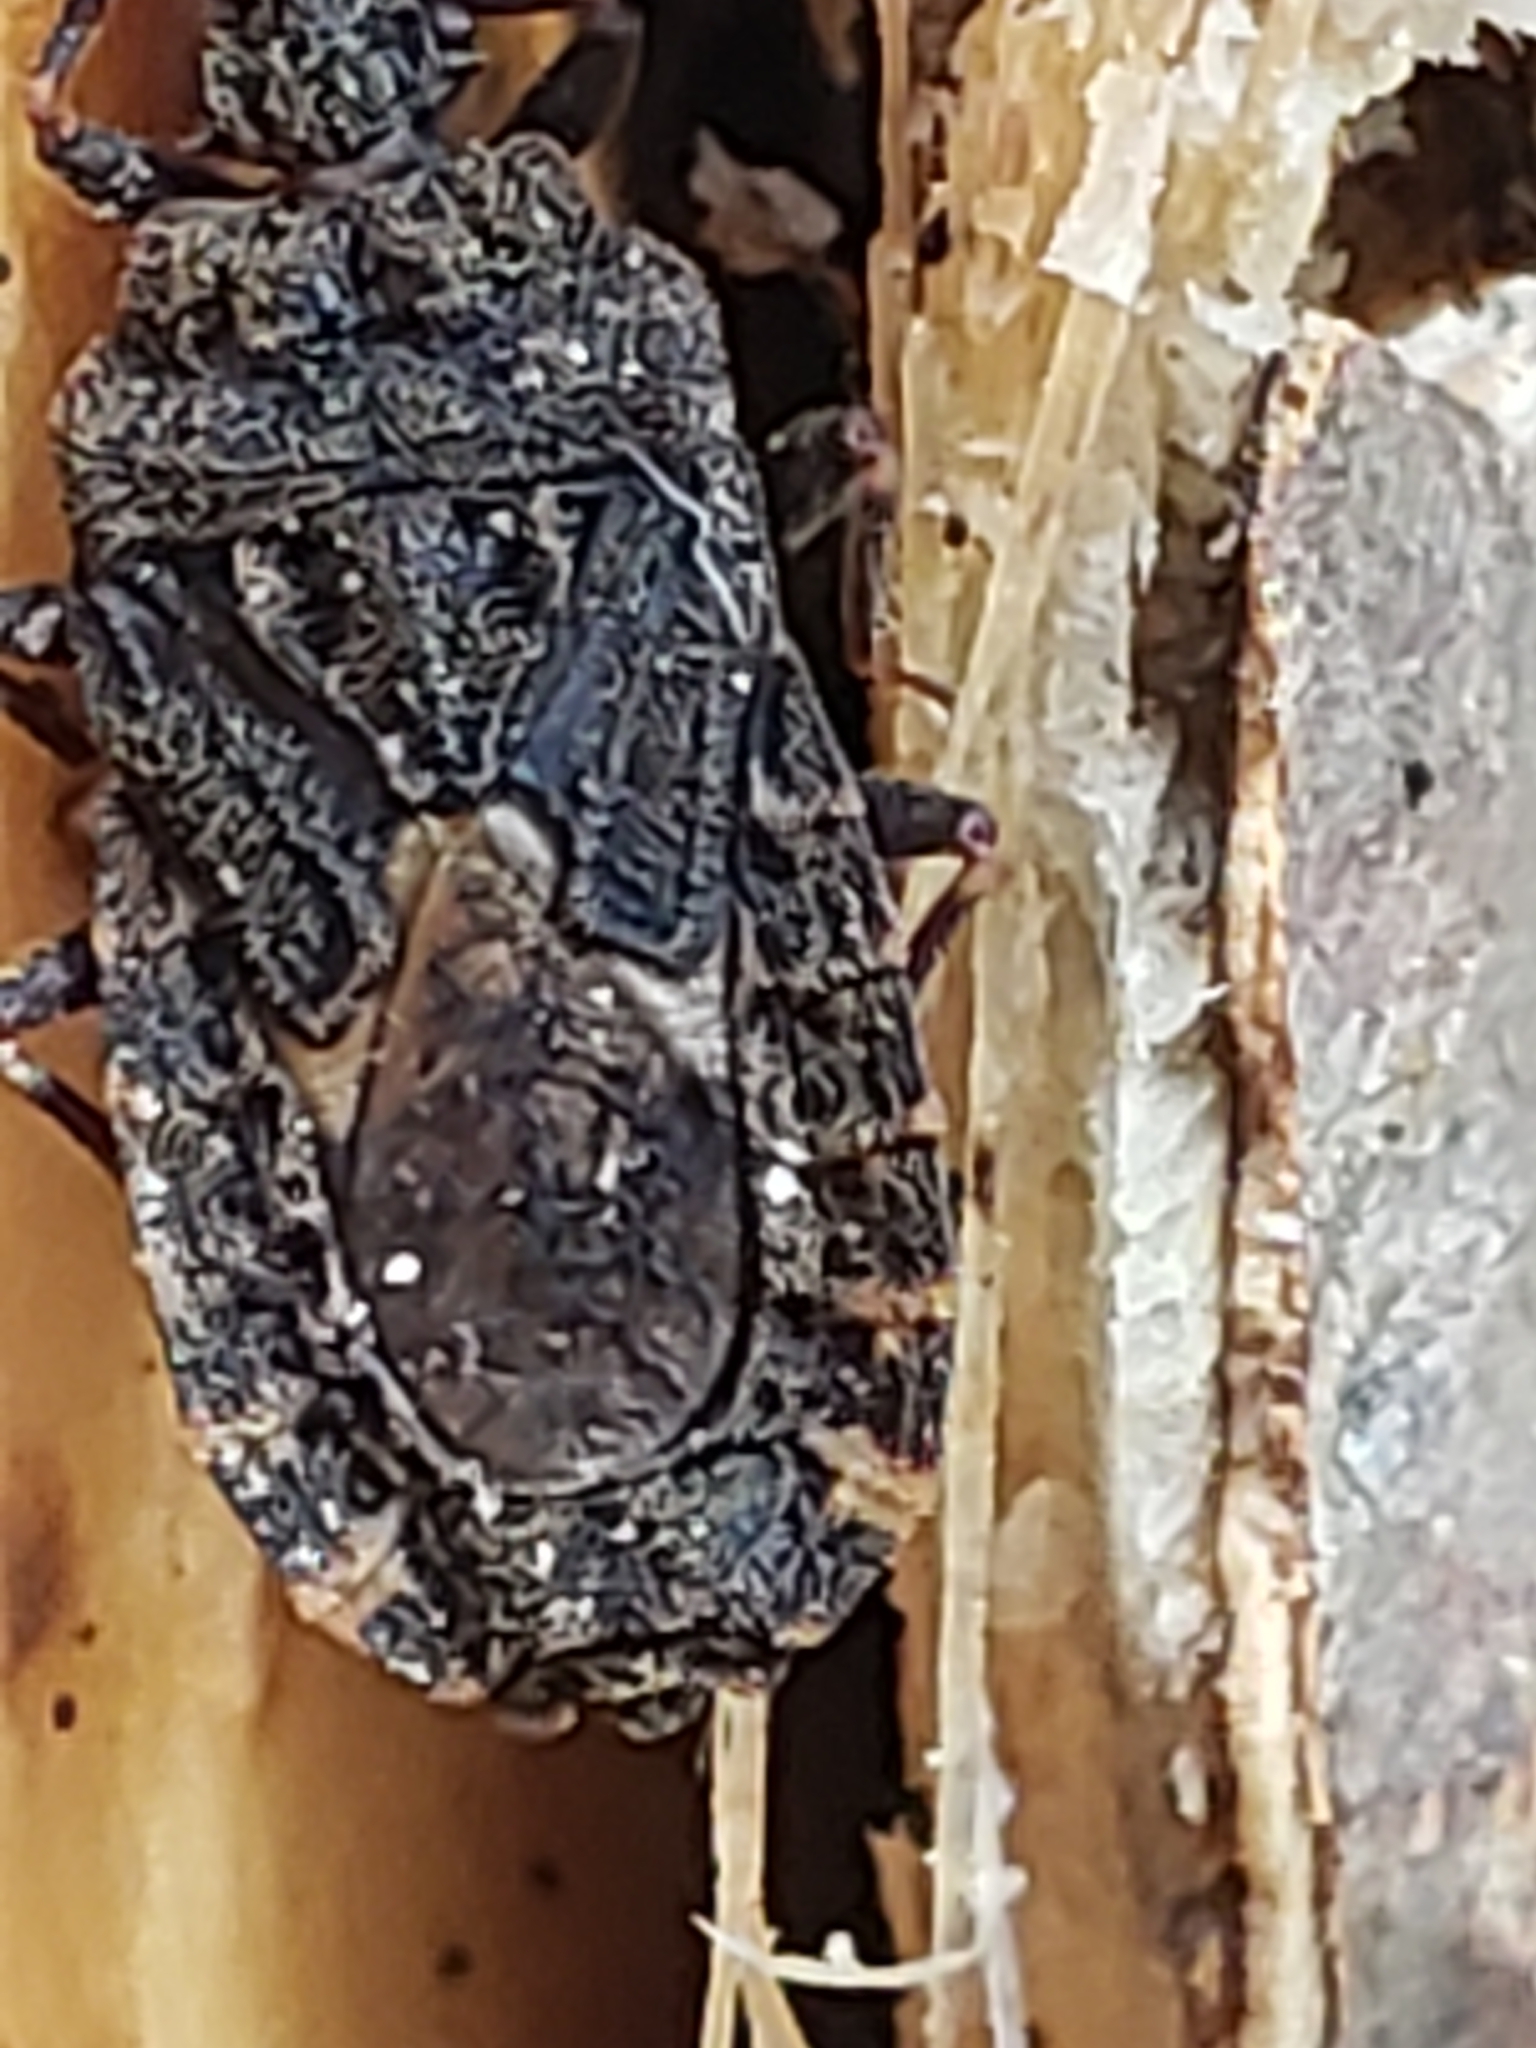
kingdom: Animalia
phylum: Arthropoda
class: Insecta
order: Hemiptera
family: Aradidae
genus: Mezira
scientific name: Mezira
